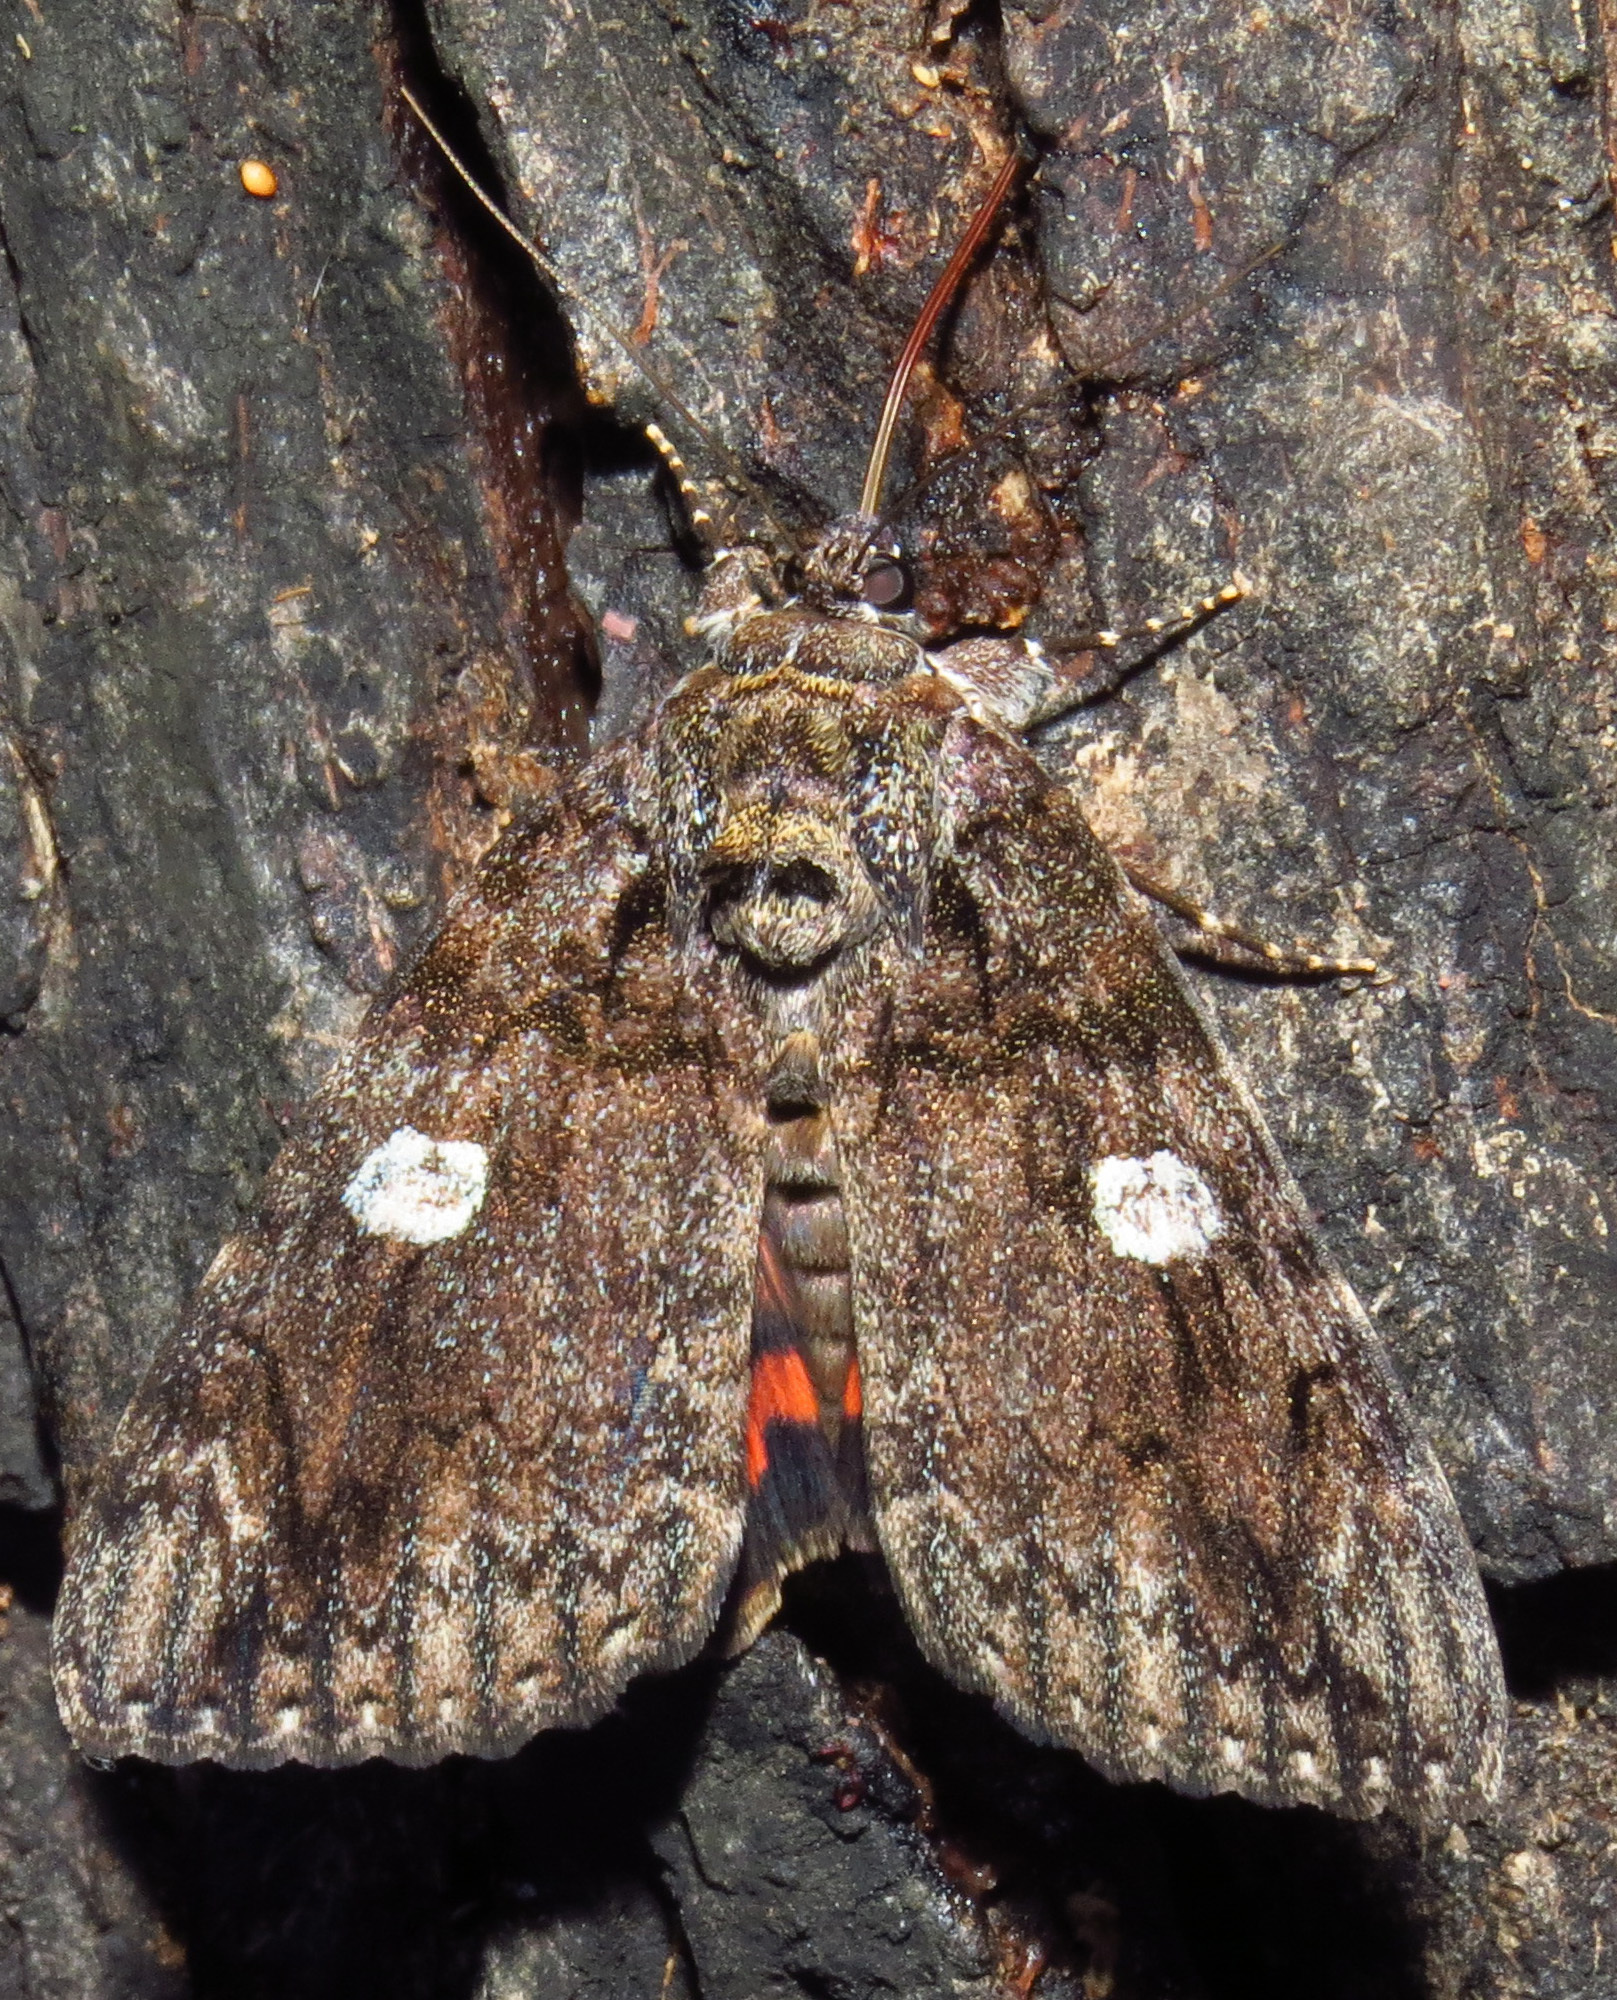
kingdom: Animalia
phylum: Arthropoda
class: Insecta
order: Lepidoptera
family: Erebidae
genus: Catocala
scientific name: Catocala ilia
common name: Ilia underwing
